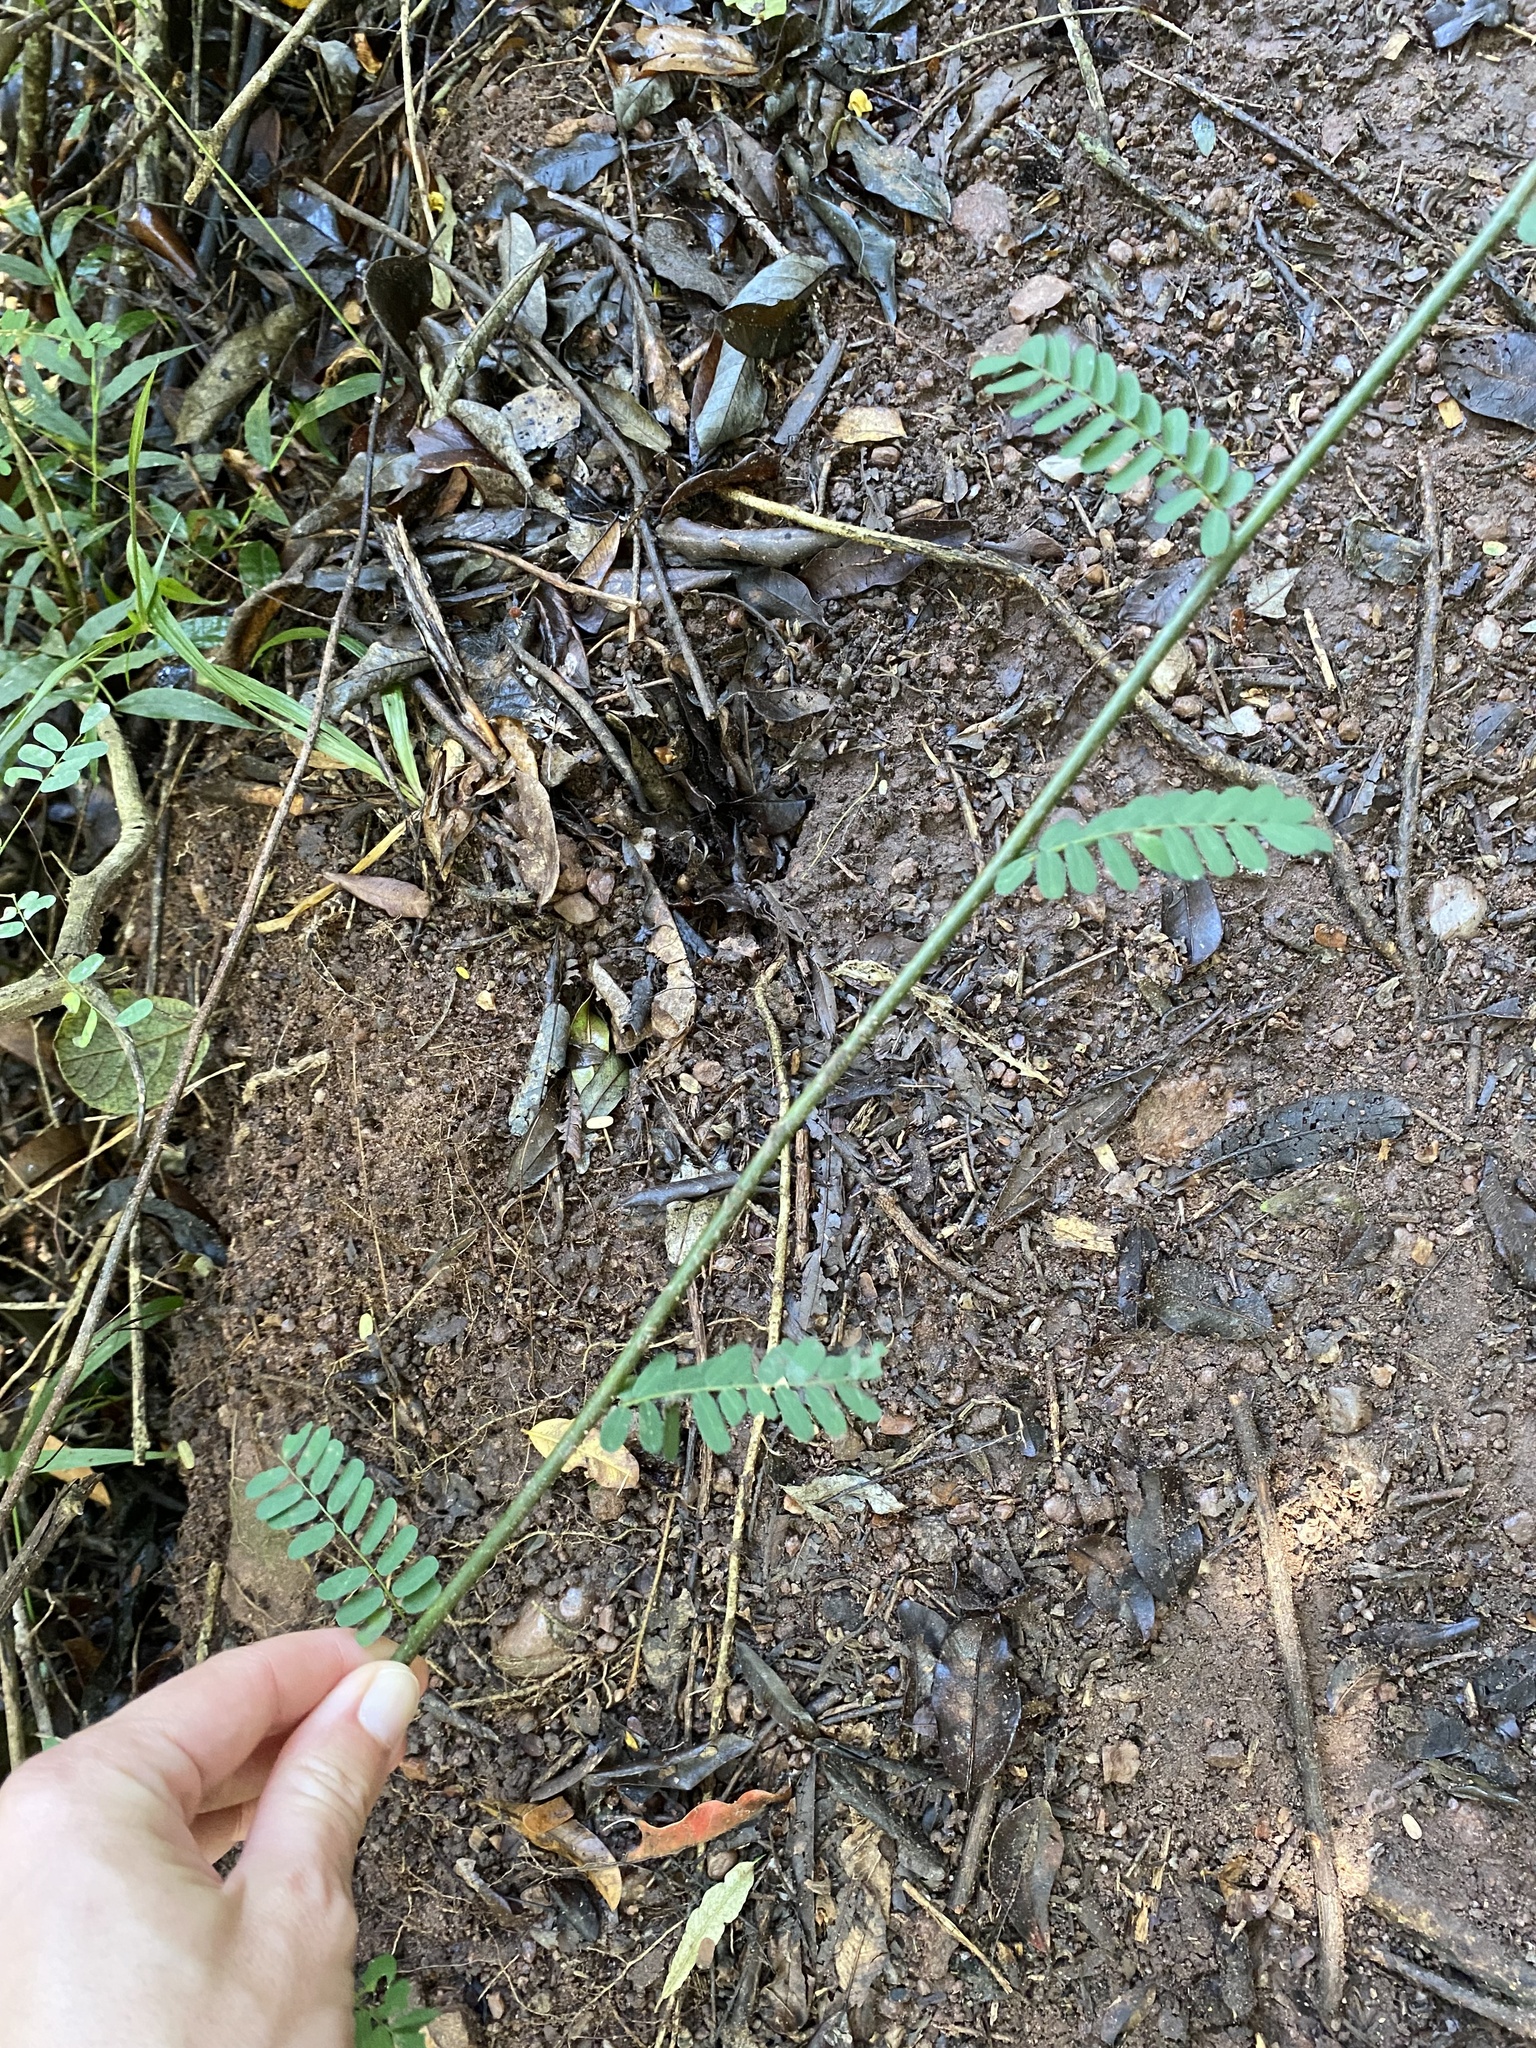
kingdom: Plantae
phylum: Tracheophyta
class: Magnoliopsida
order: Fabales
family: Fabaceae
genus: Dalbergia
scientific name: Dalbergia armata
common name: Hluhluwe climber
